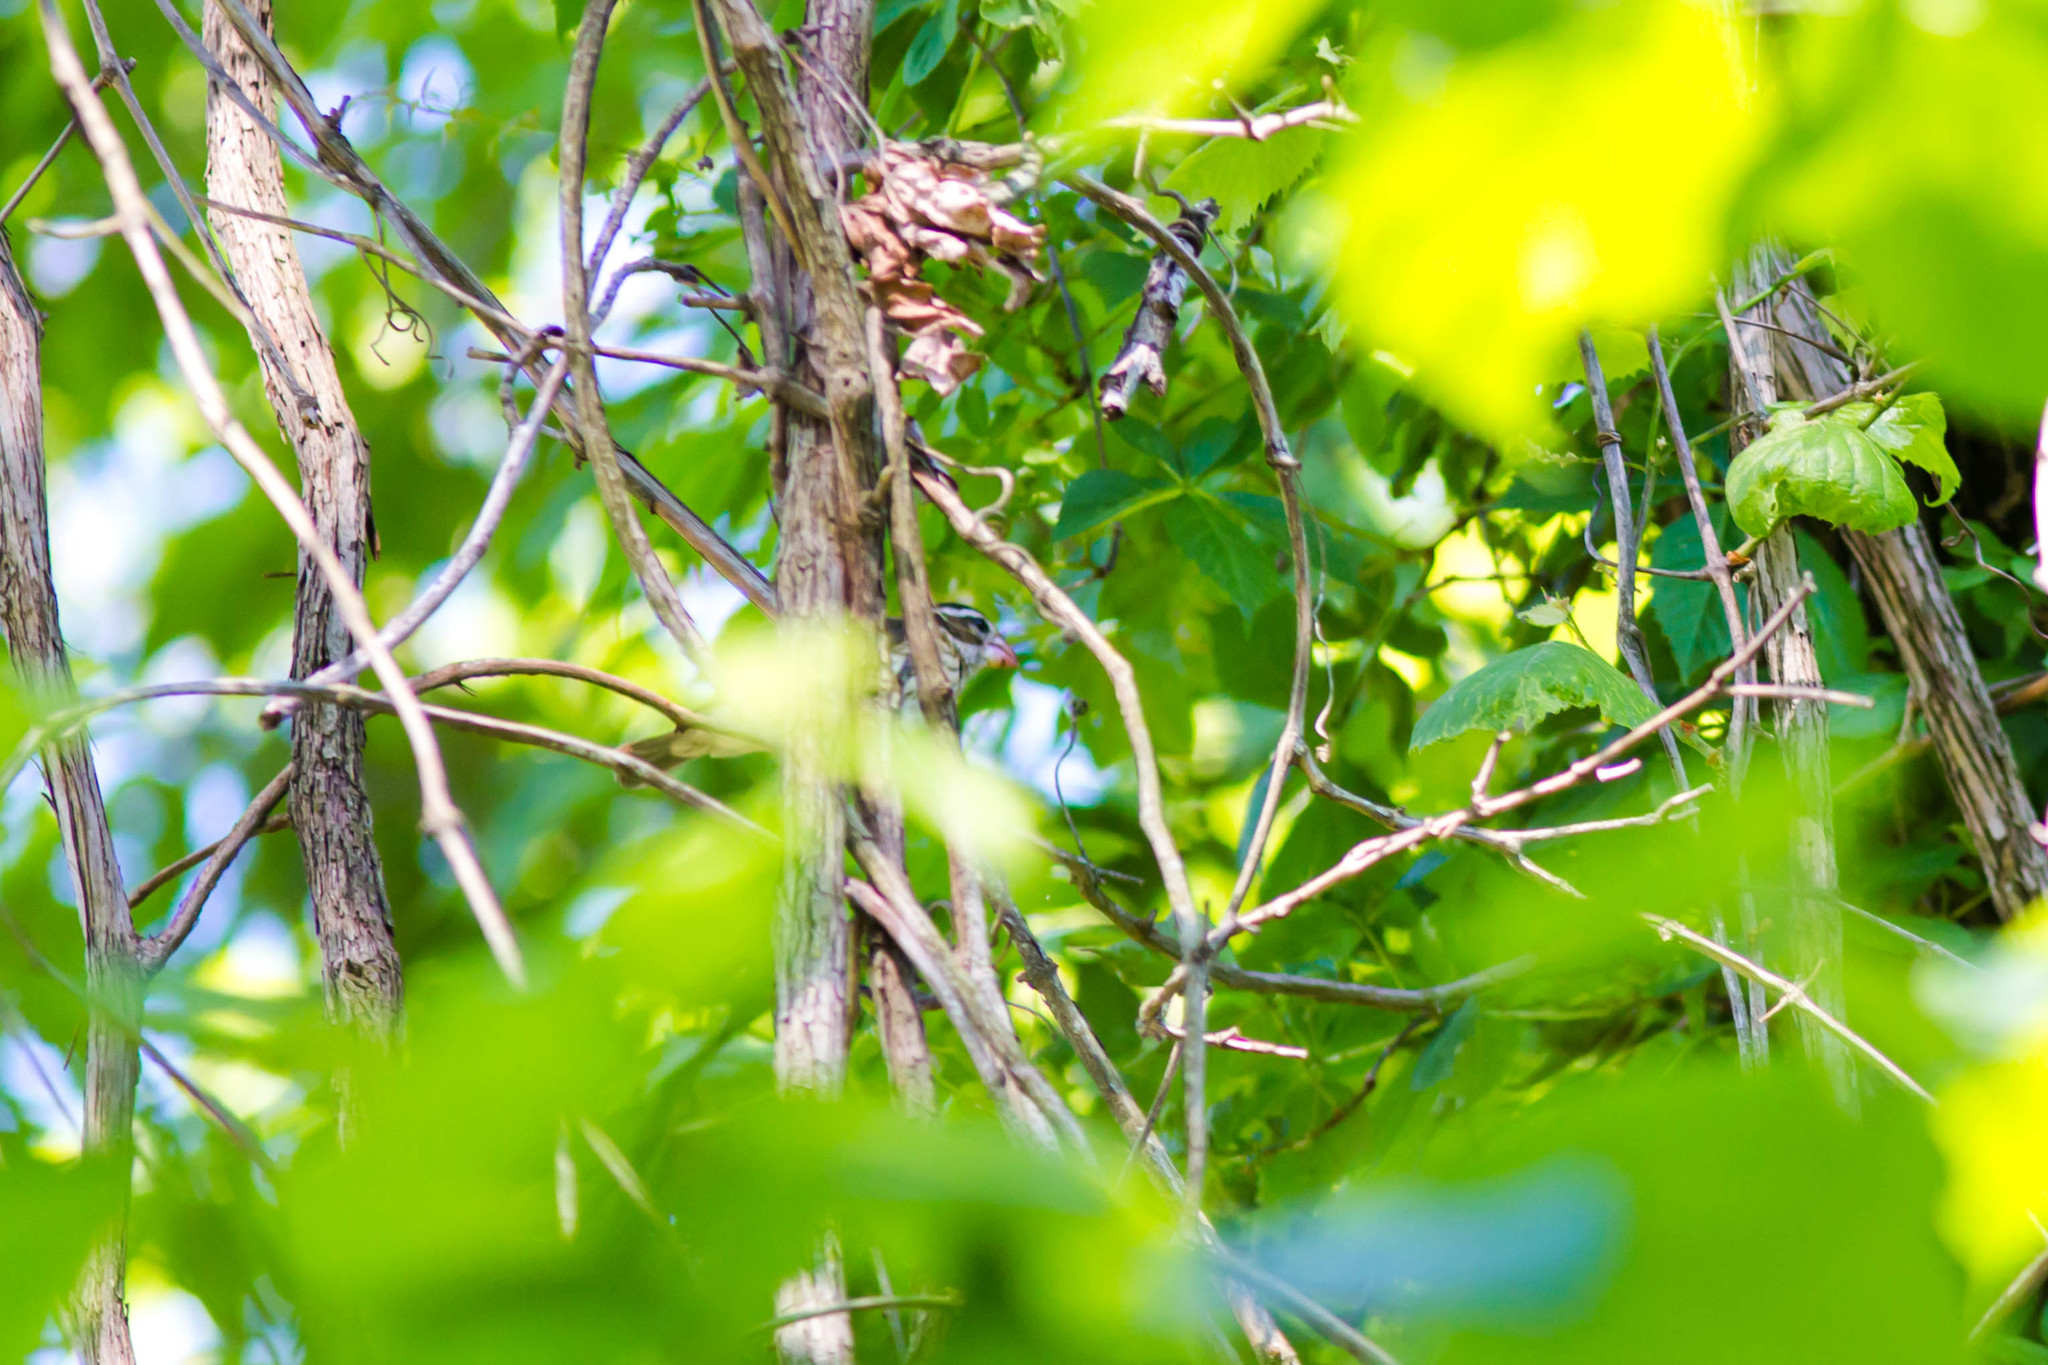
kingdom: Animalia
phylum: Chordata
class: Aves
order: Passeriformes
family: Cardinalidae
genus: Pheucticus
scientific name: Pheucticus ludovicianus
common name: Rose-breasted grosbeak
